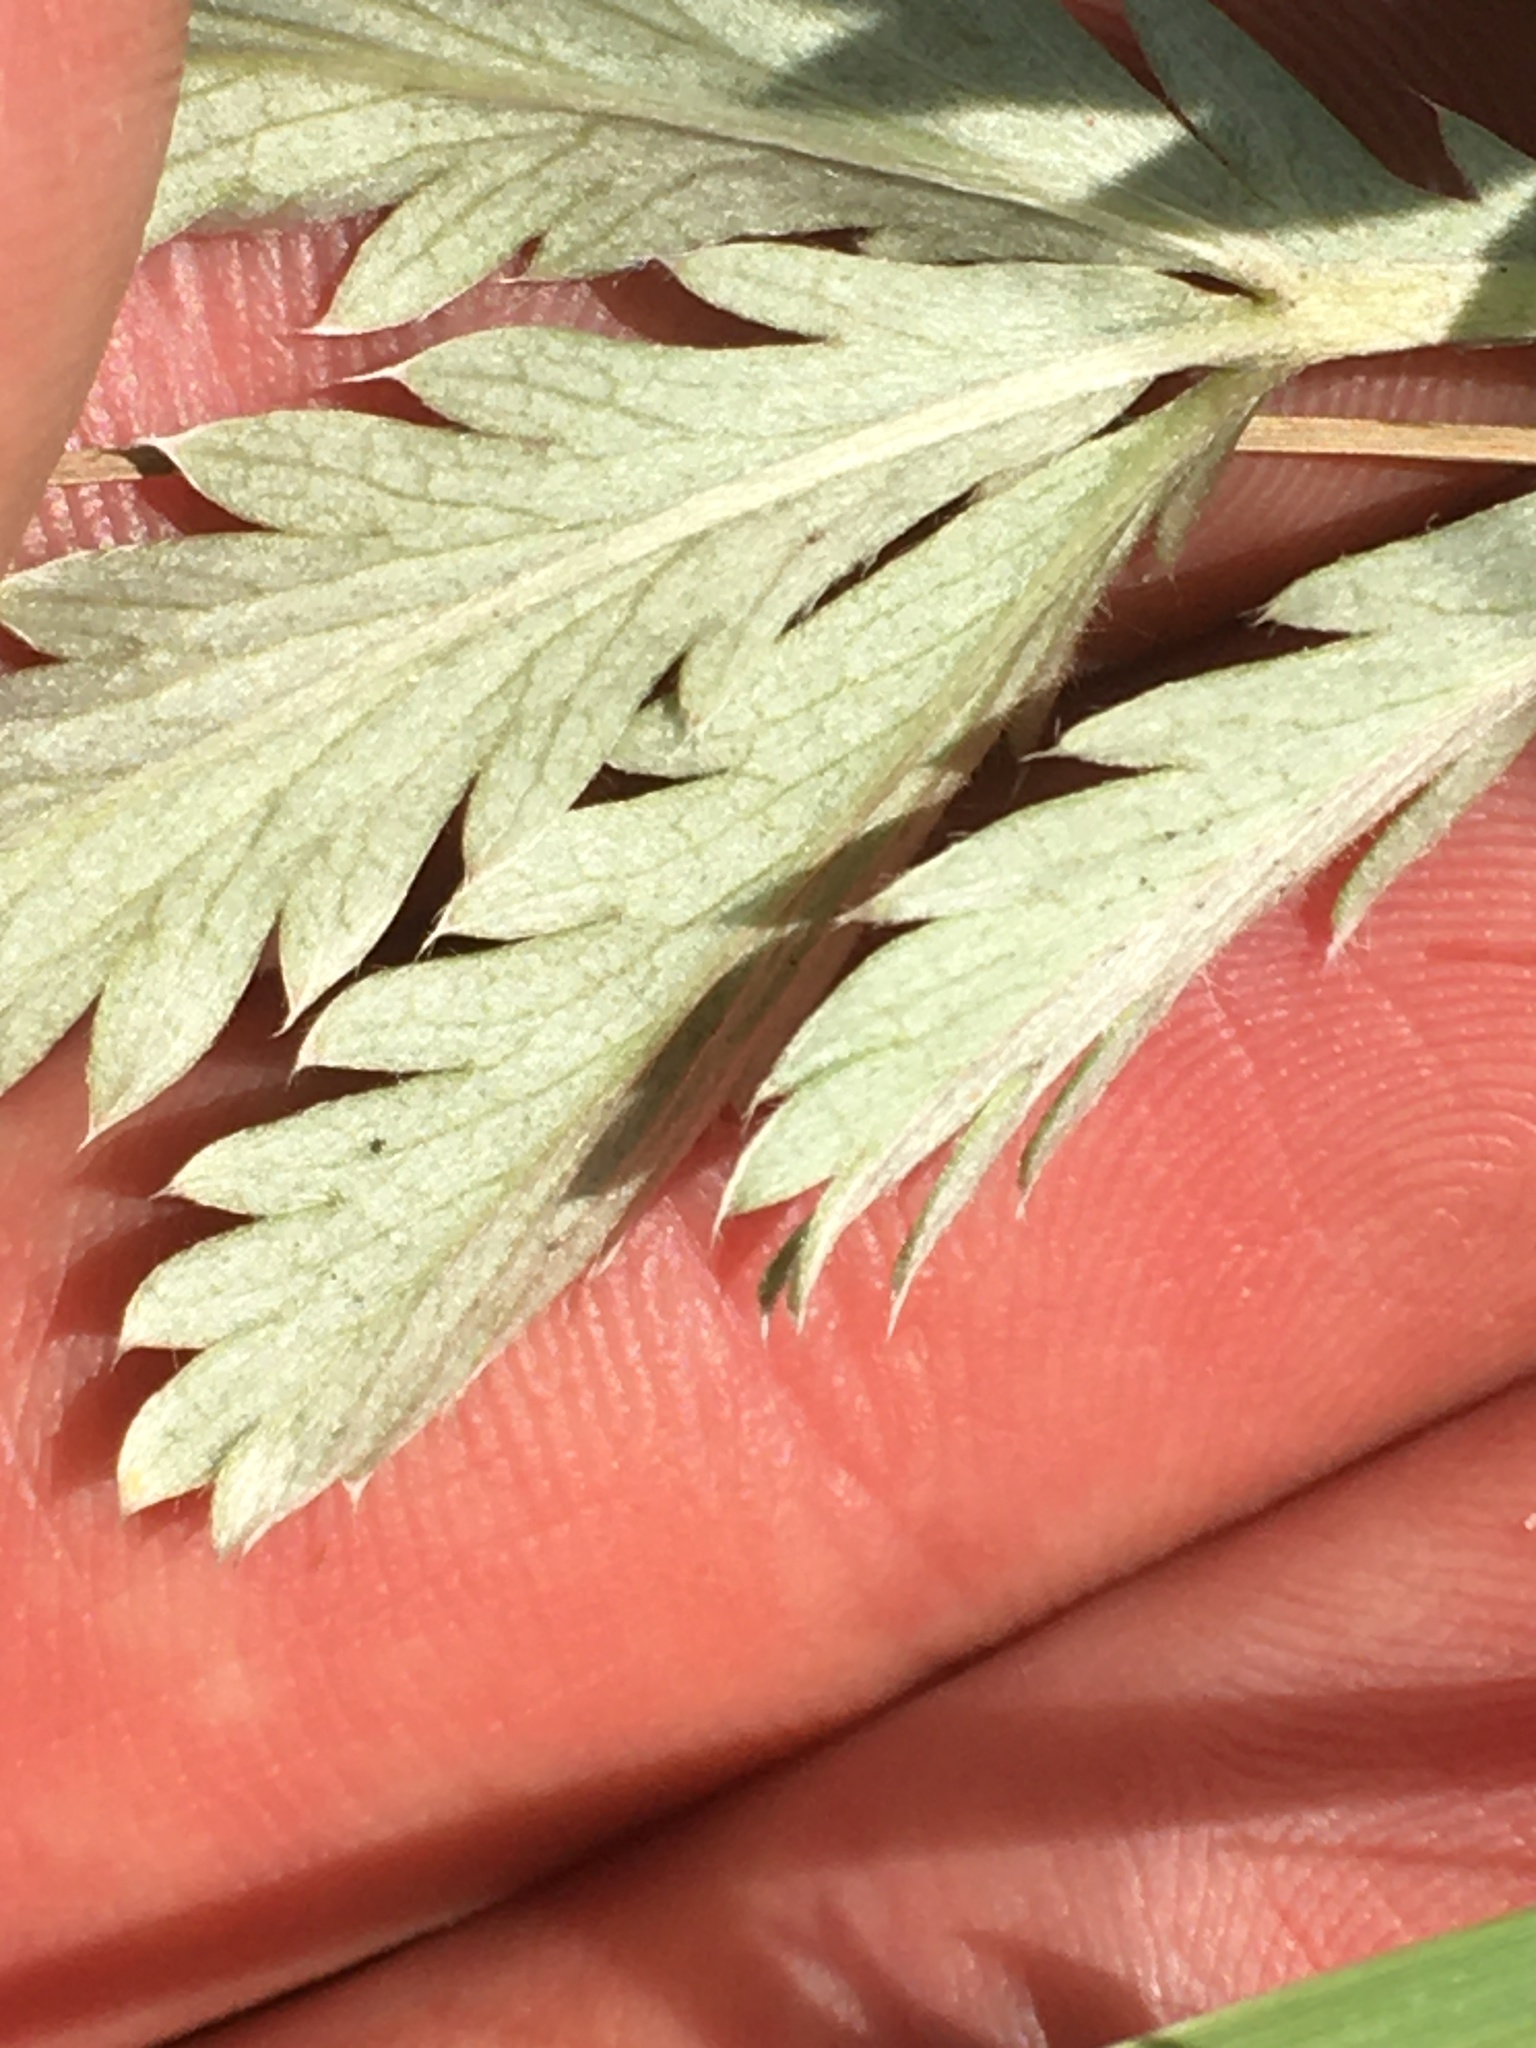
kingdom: Plantae
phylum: Tracheophyta
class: Magnoliopsida
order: Rosales
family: Rosaceae
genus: Potentilla
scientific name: Potentilla hippiana
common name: Woolly cinquefoil
